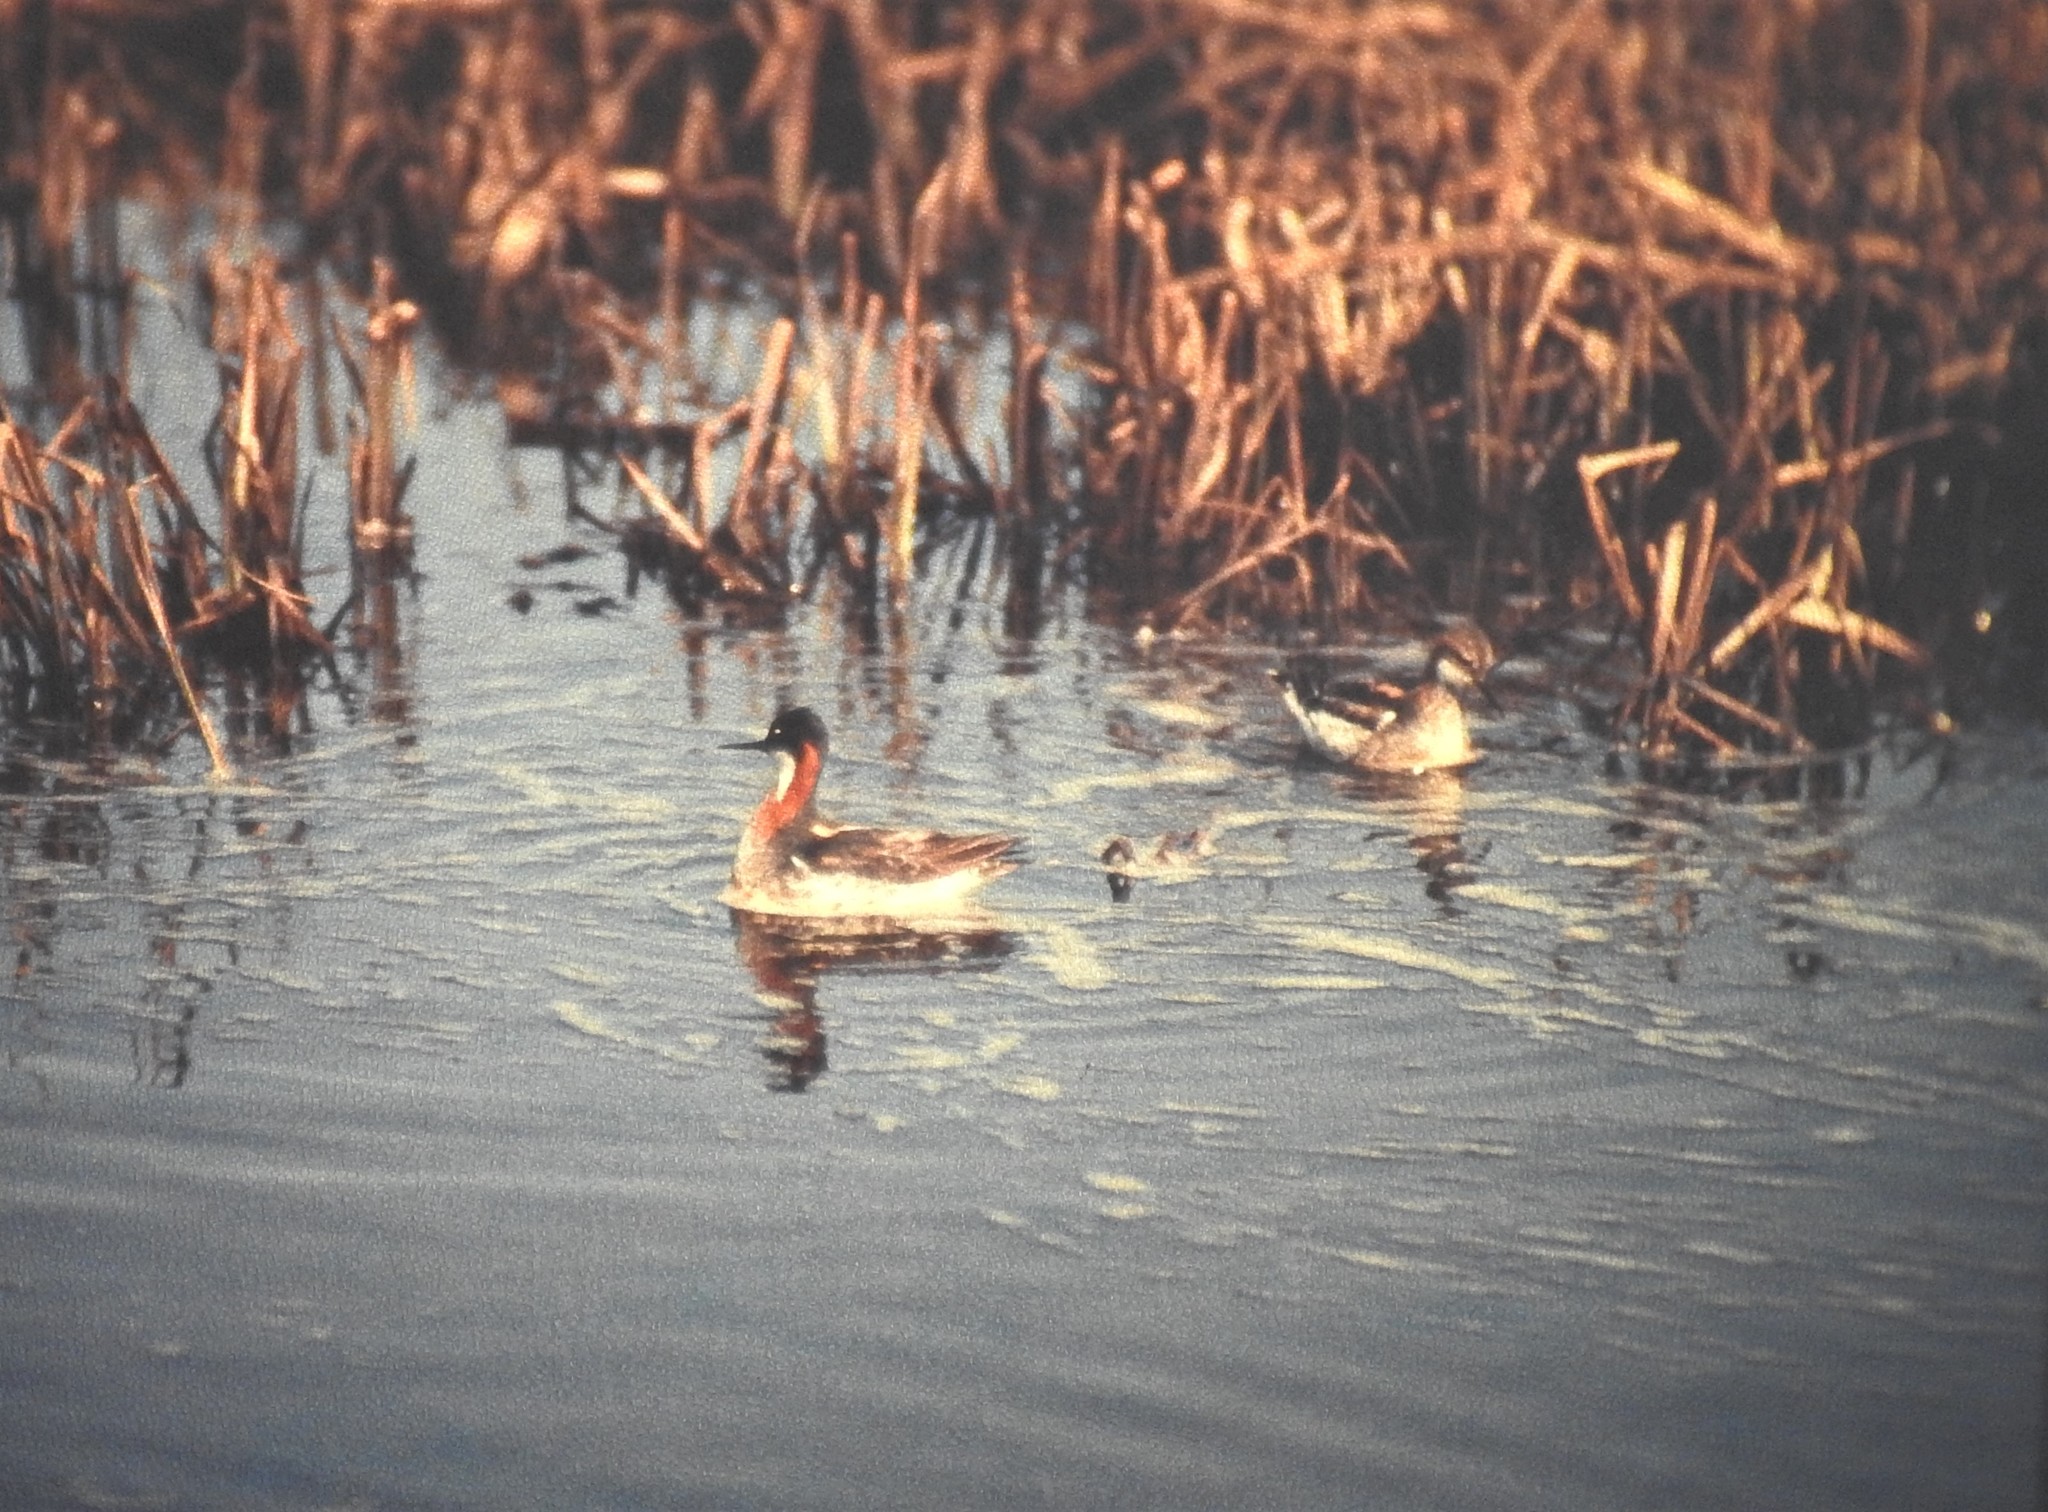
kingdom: Animalia
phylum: Chordata
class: Aves
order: Charadriiformes
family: Scolopacidae
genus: Phalaropus
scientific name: Phalaropus lobatus
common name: Red-necked phalarope
